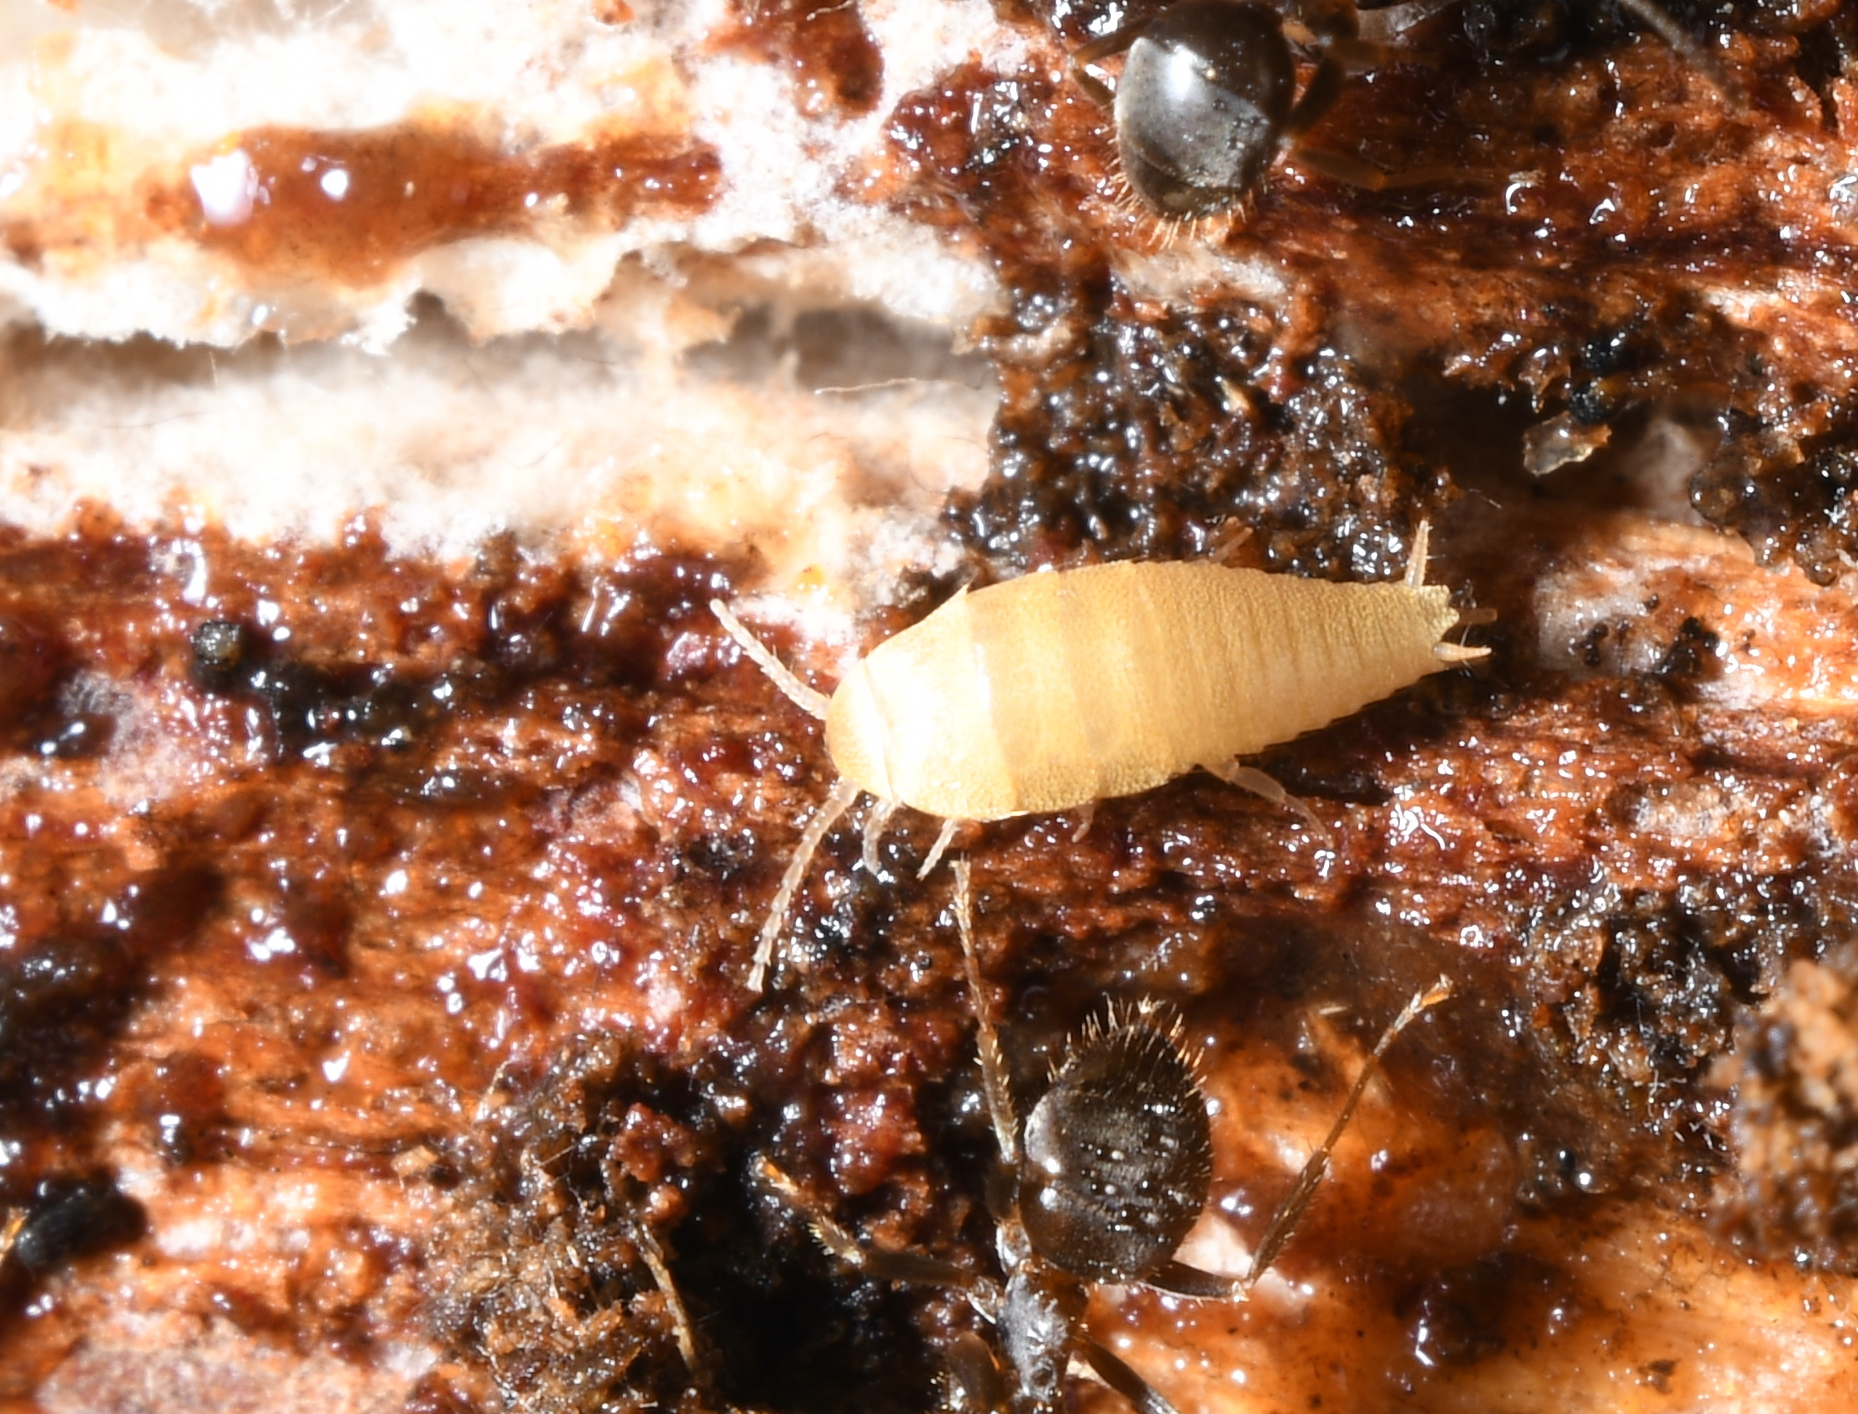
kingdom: Animalia
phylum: Arthropoda
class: Insecta
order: Zygentoma
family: Nicoletiidae
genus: Atelura
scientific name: Atelura formicaria
